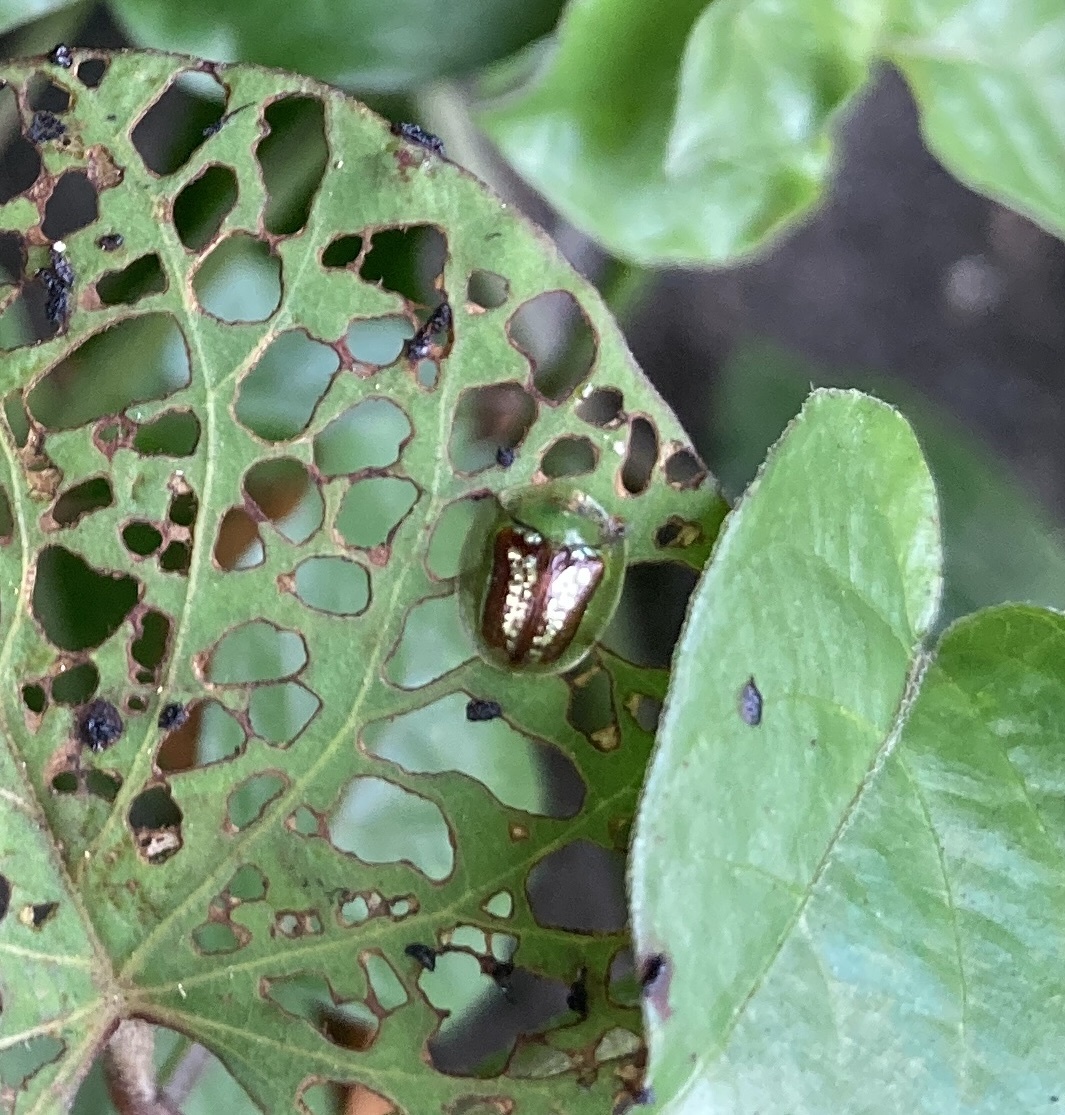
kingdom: Animalia
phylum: Arthropoda
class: Insecta
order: Coleoptera
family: Chrysomelidae
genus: Cassida
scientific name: Cassida compuncta
